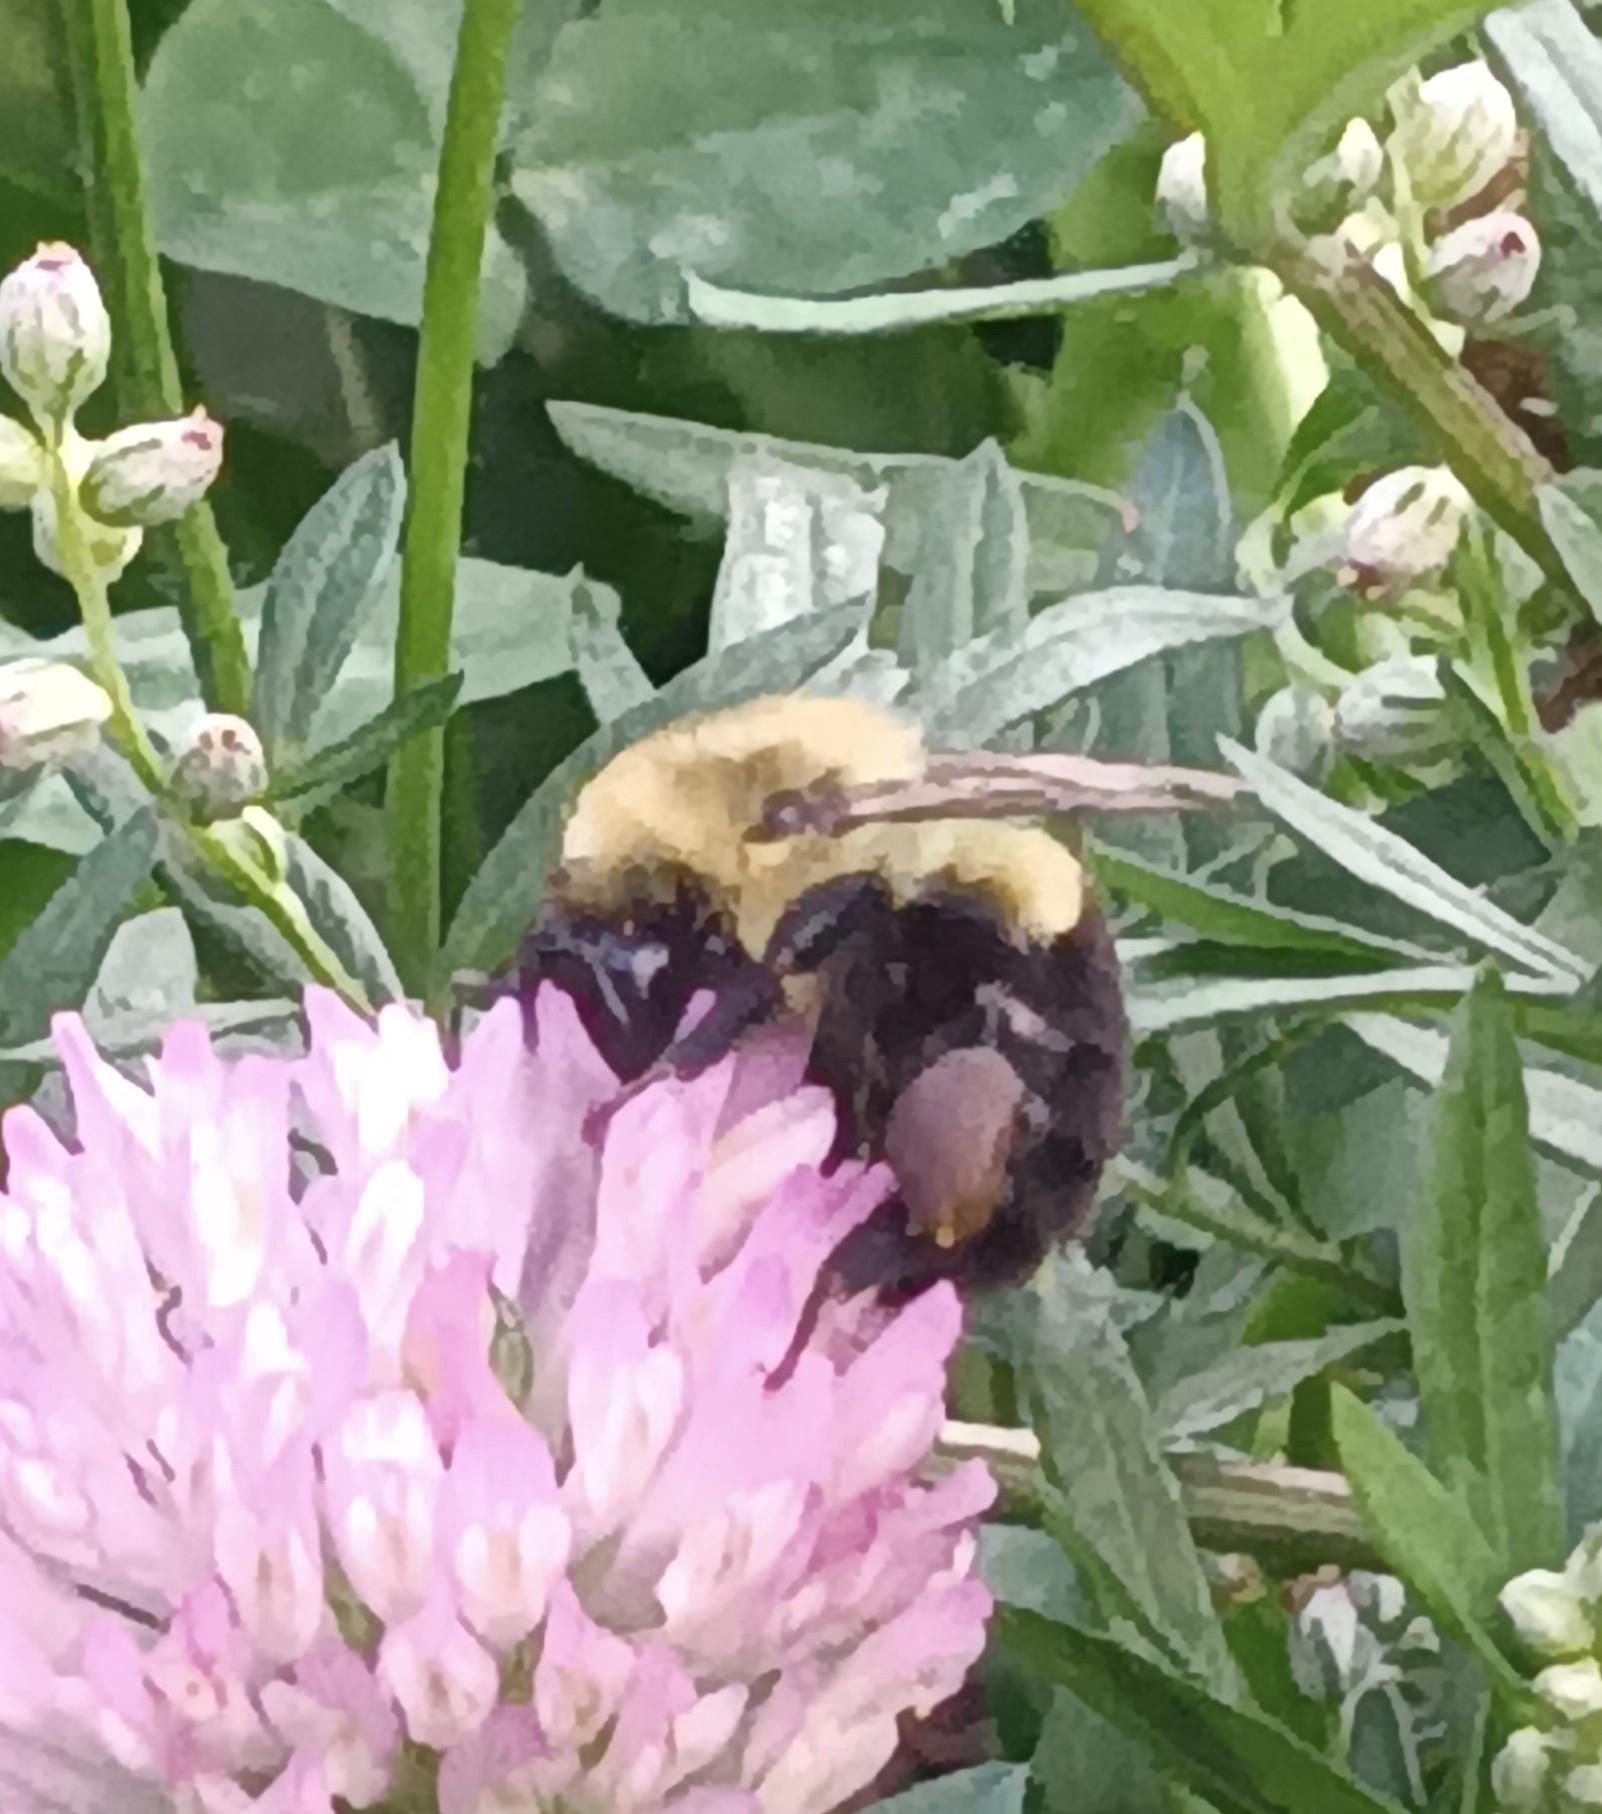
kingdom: Animalia
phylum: Arthropoda
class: Insecta
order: Hymenoptera
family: Apidae
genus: Bombus
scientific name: Bombus impatiens
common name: Common eastern bumble bee
